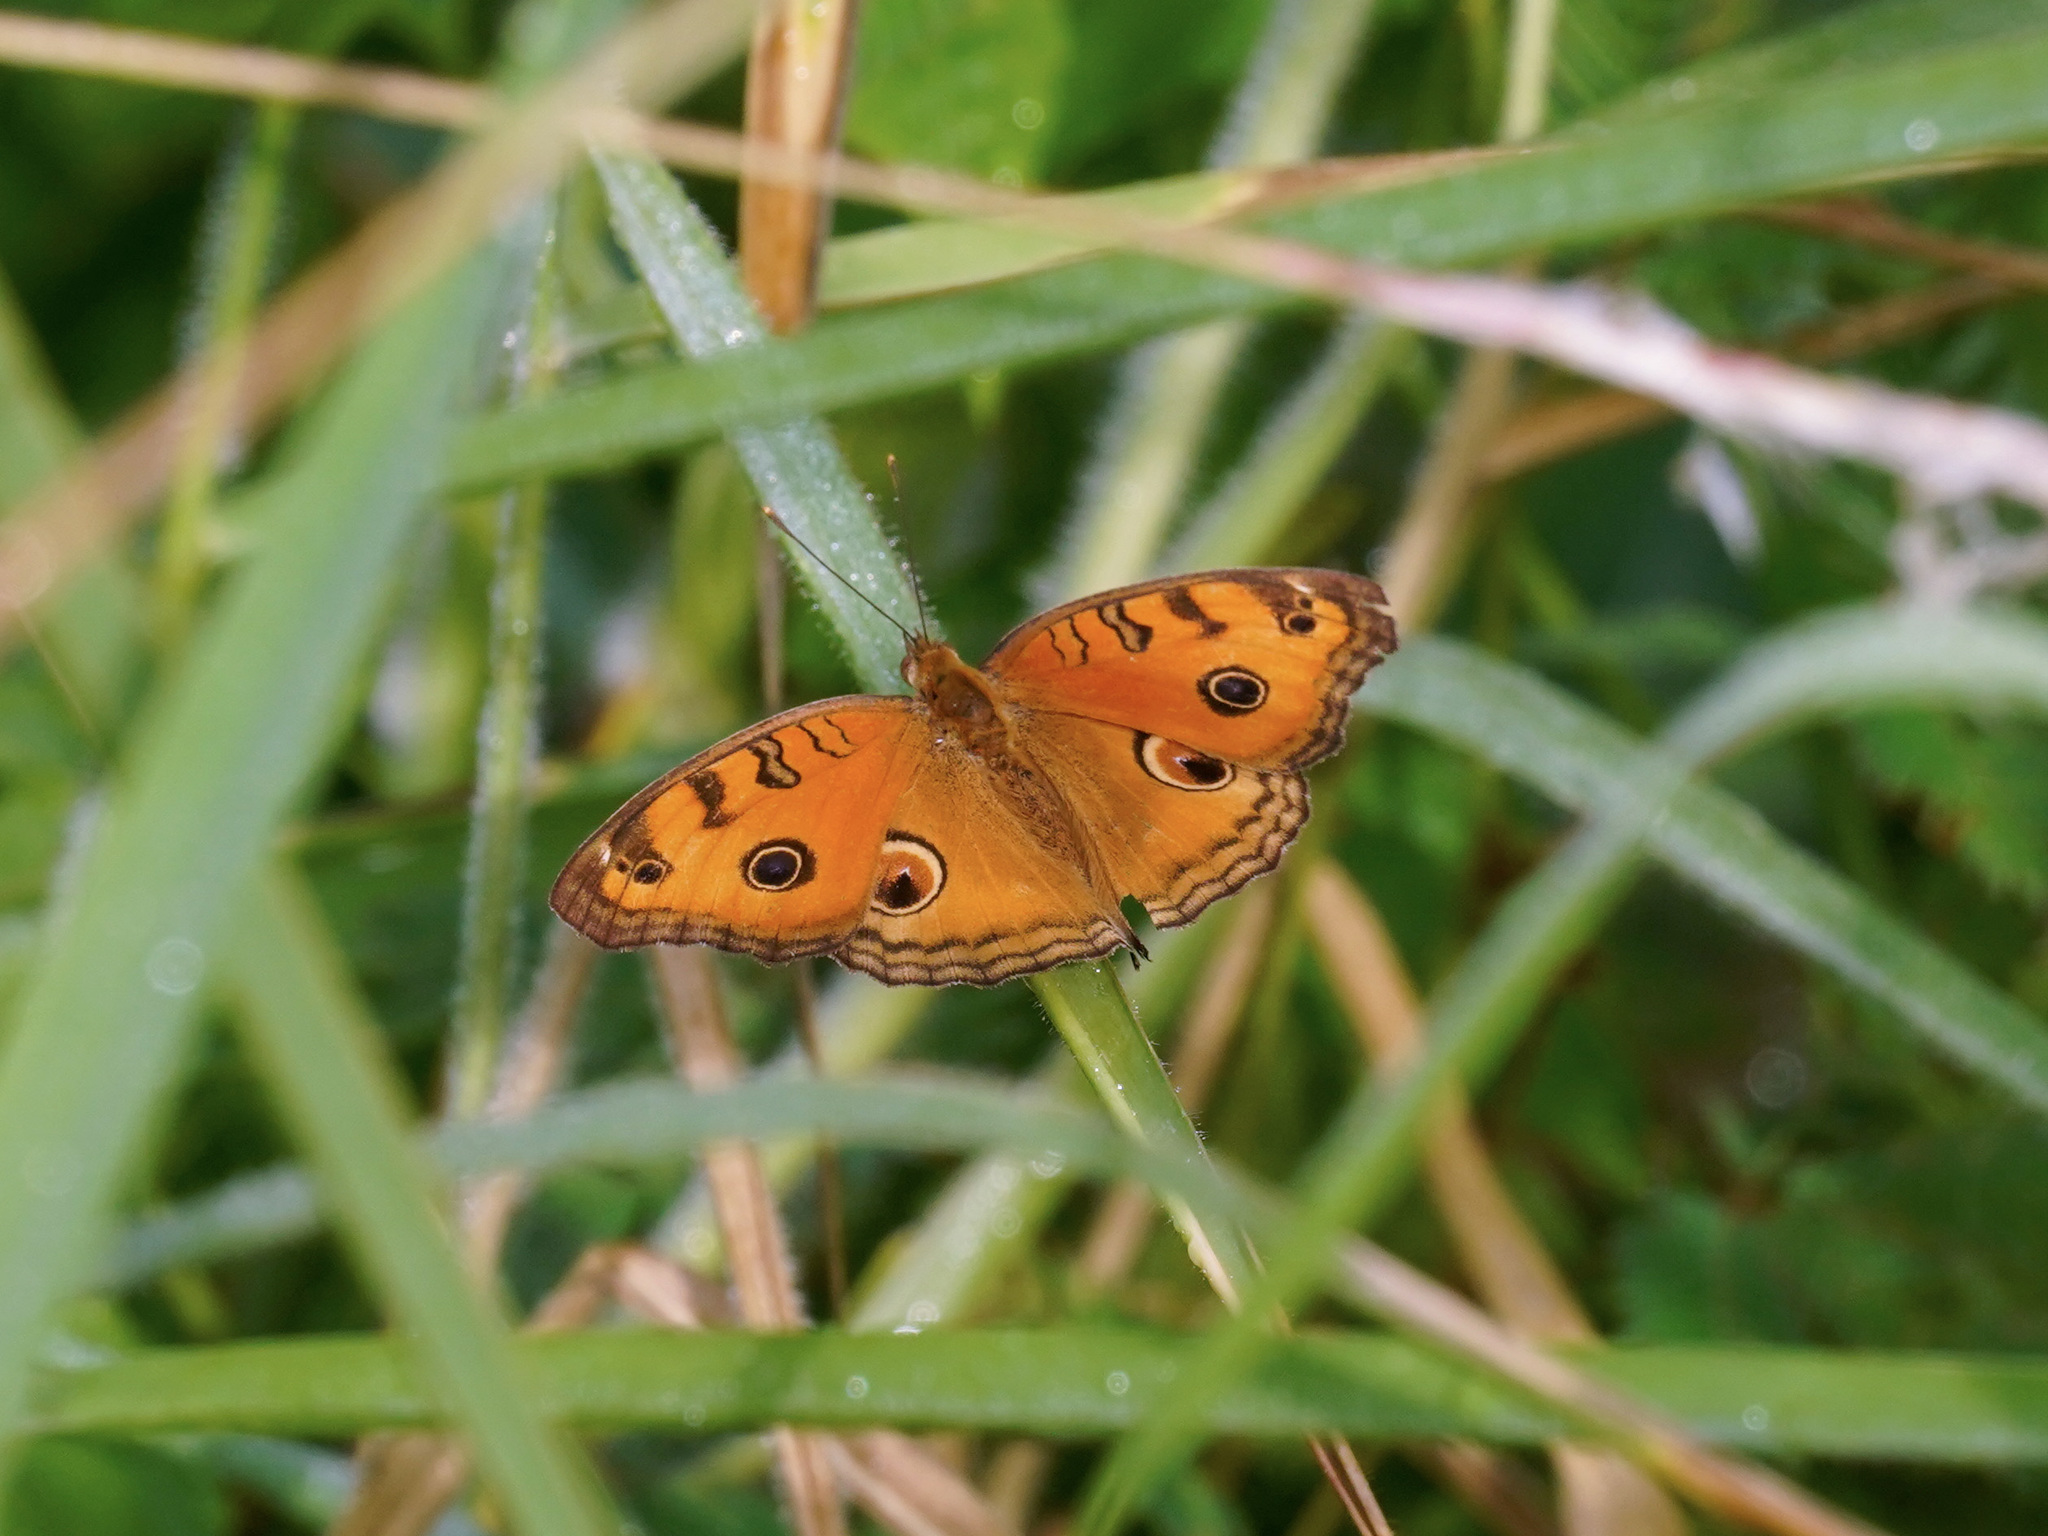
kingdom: Animalia
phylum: Arthropoda
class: Insecta
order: Lepidoptera
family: Nymphalidae
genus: Junonia
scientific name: Junonia almana
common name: Peacock pansy
